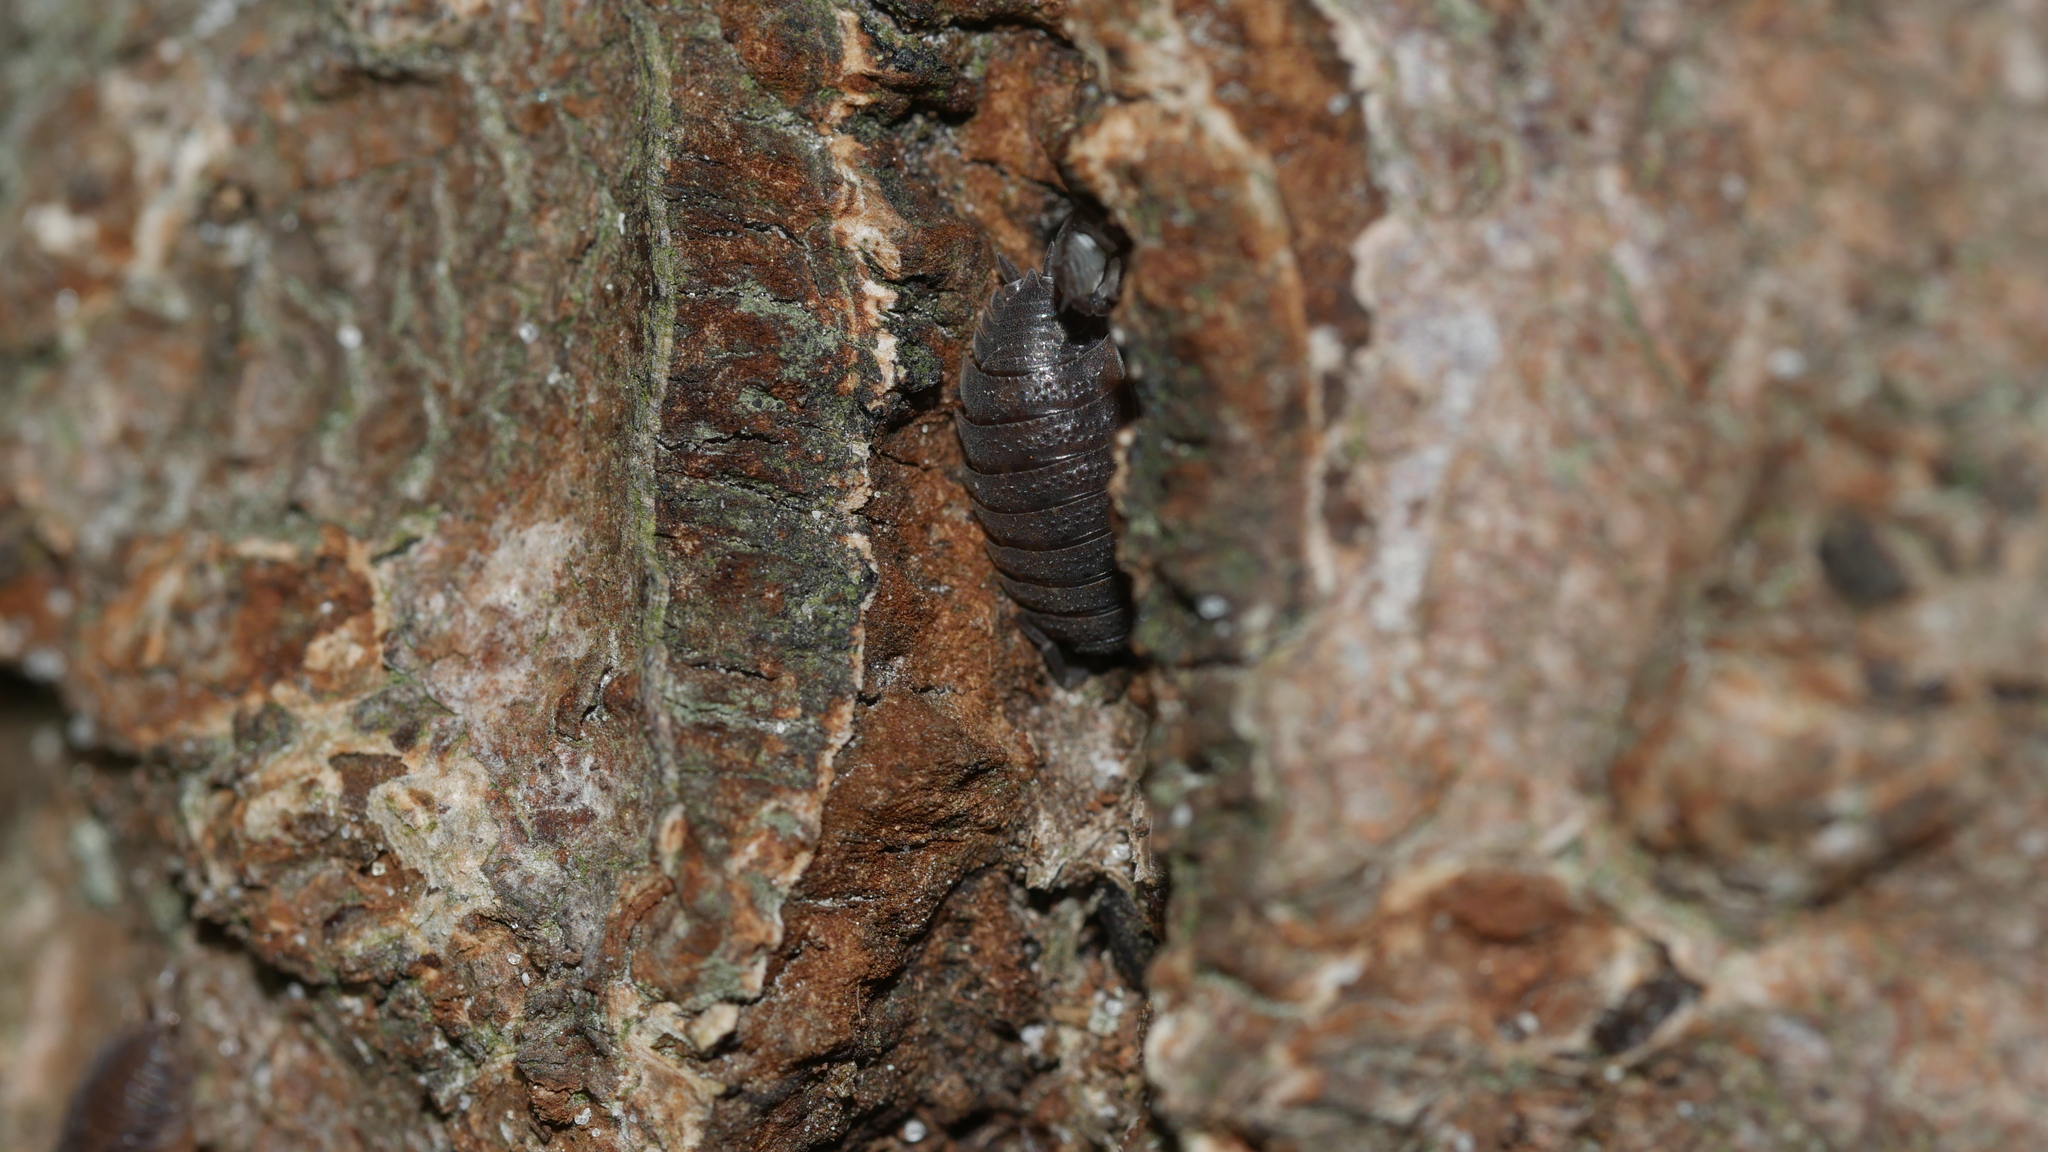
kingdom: Animalia
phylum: Arthropoda
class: Malacostraca
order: Isopoda
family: Porcellionidae
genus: Porcellio
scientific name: Porcellio scaber
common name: Common rough woodlouse
